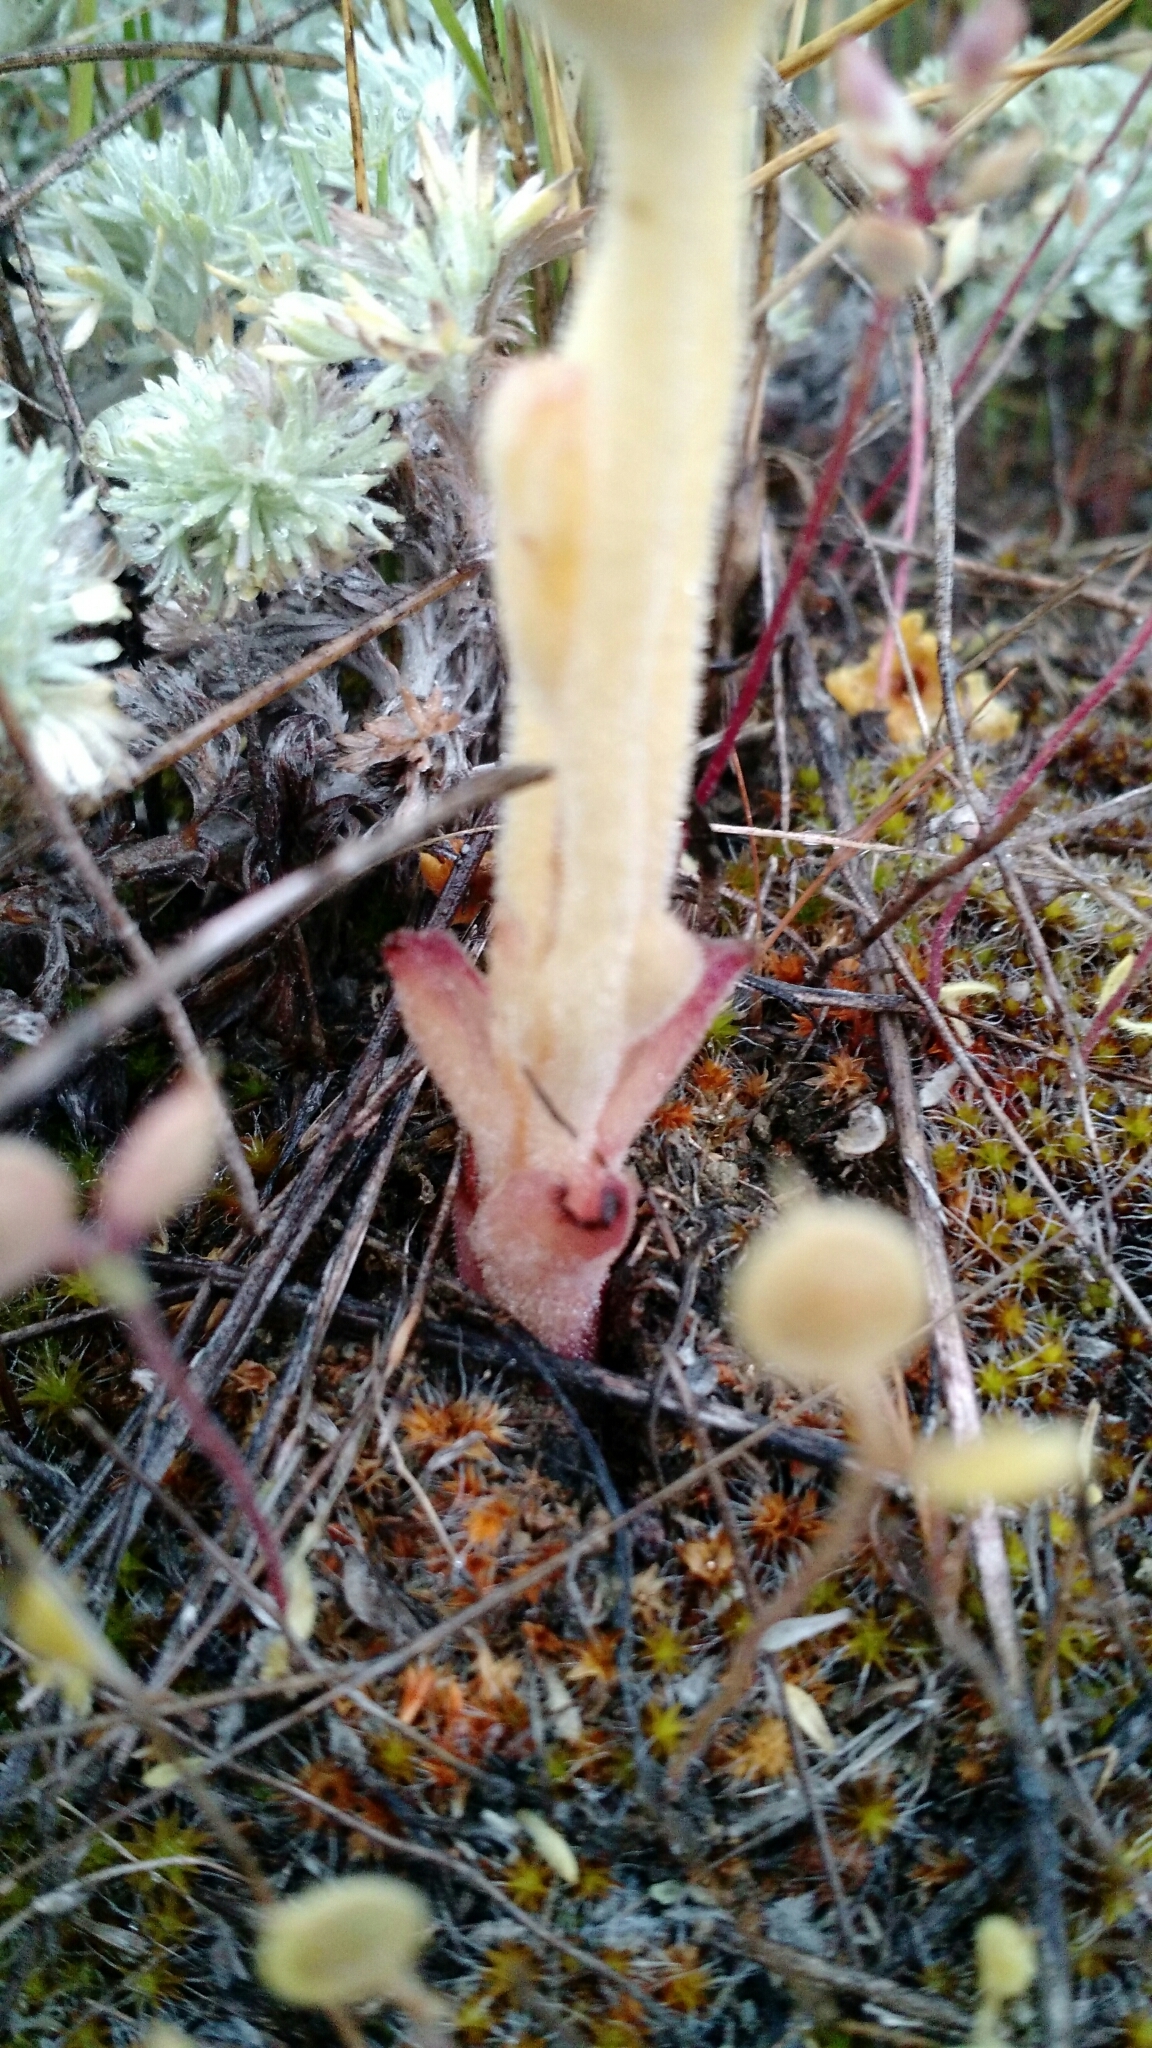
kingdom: Plantae
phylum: Tracheophyta
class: Magnoliopsida
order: Lamiales
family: Orobanchaceae
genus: Aphyllon
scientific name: Aphyllon fasciculatum
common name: Clustered broomrape
